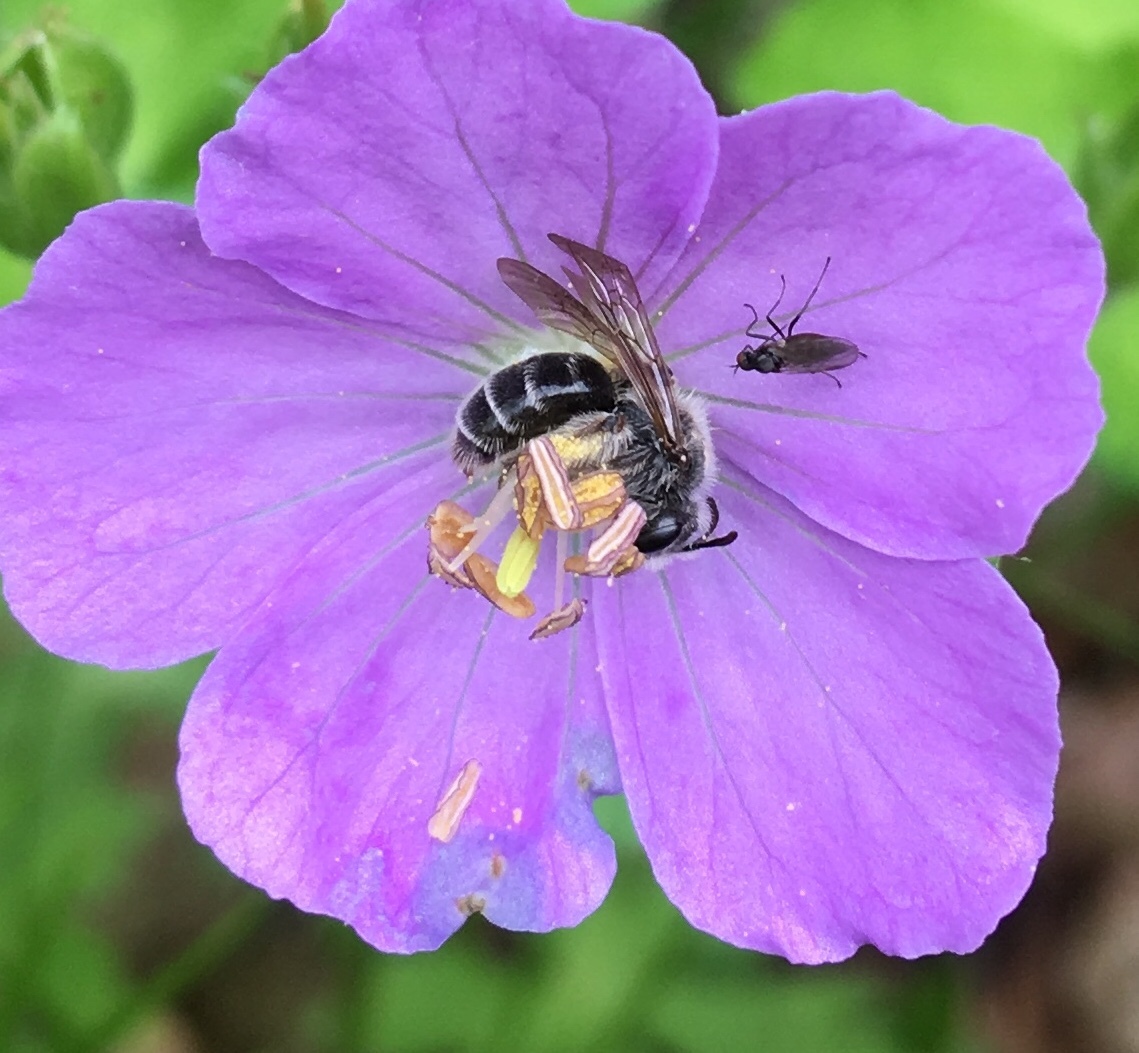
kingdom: Animalia
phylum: Arthropoda
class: Insecta
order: Hymenoptera
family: Andrenidae
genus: Andrena
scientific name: Andrena distans
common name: Cranesbill miner
